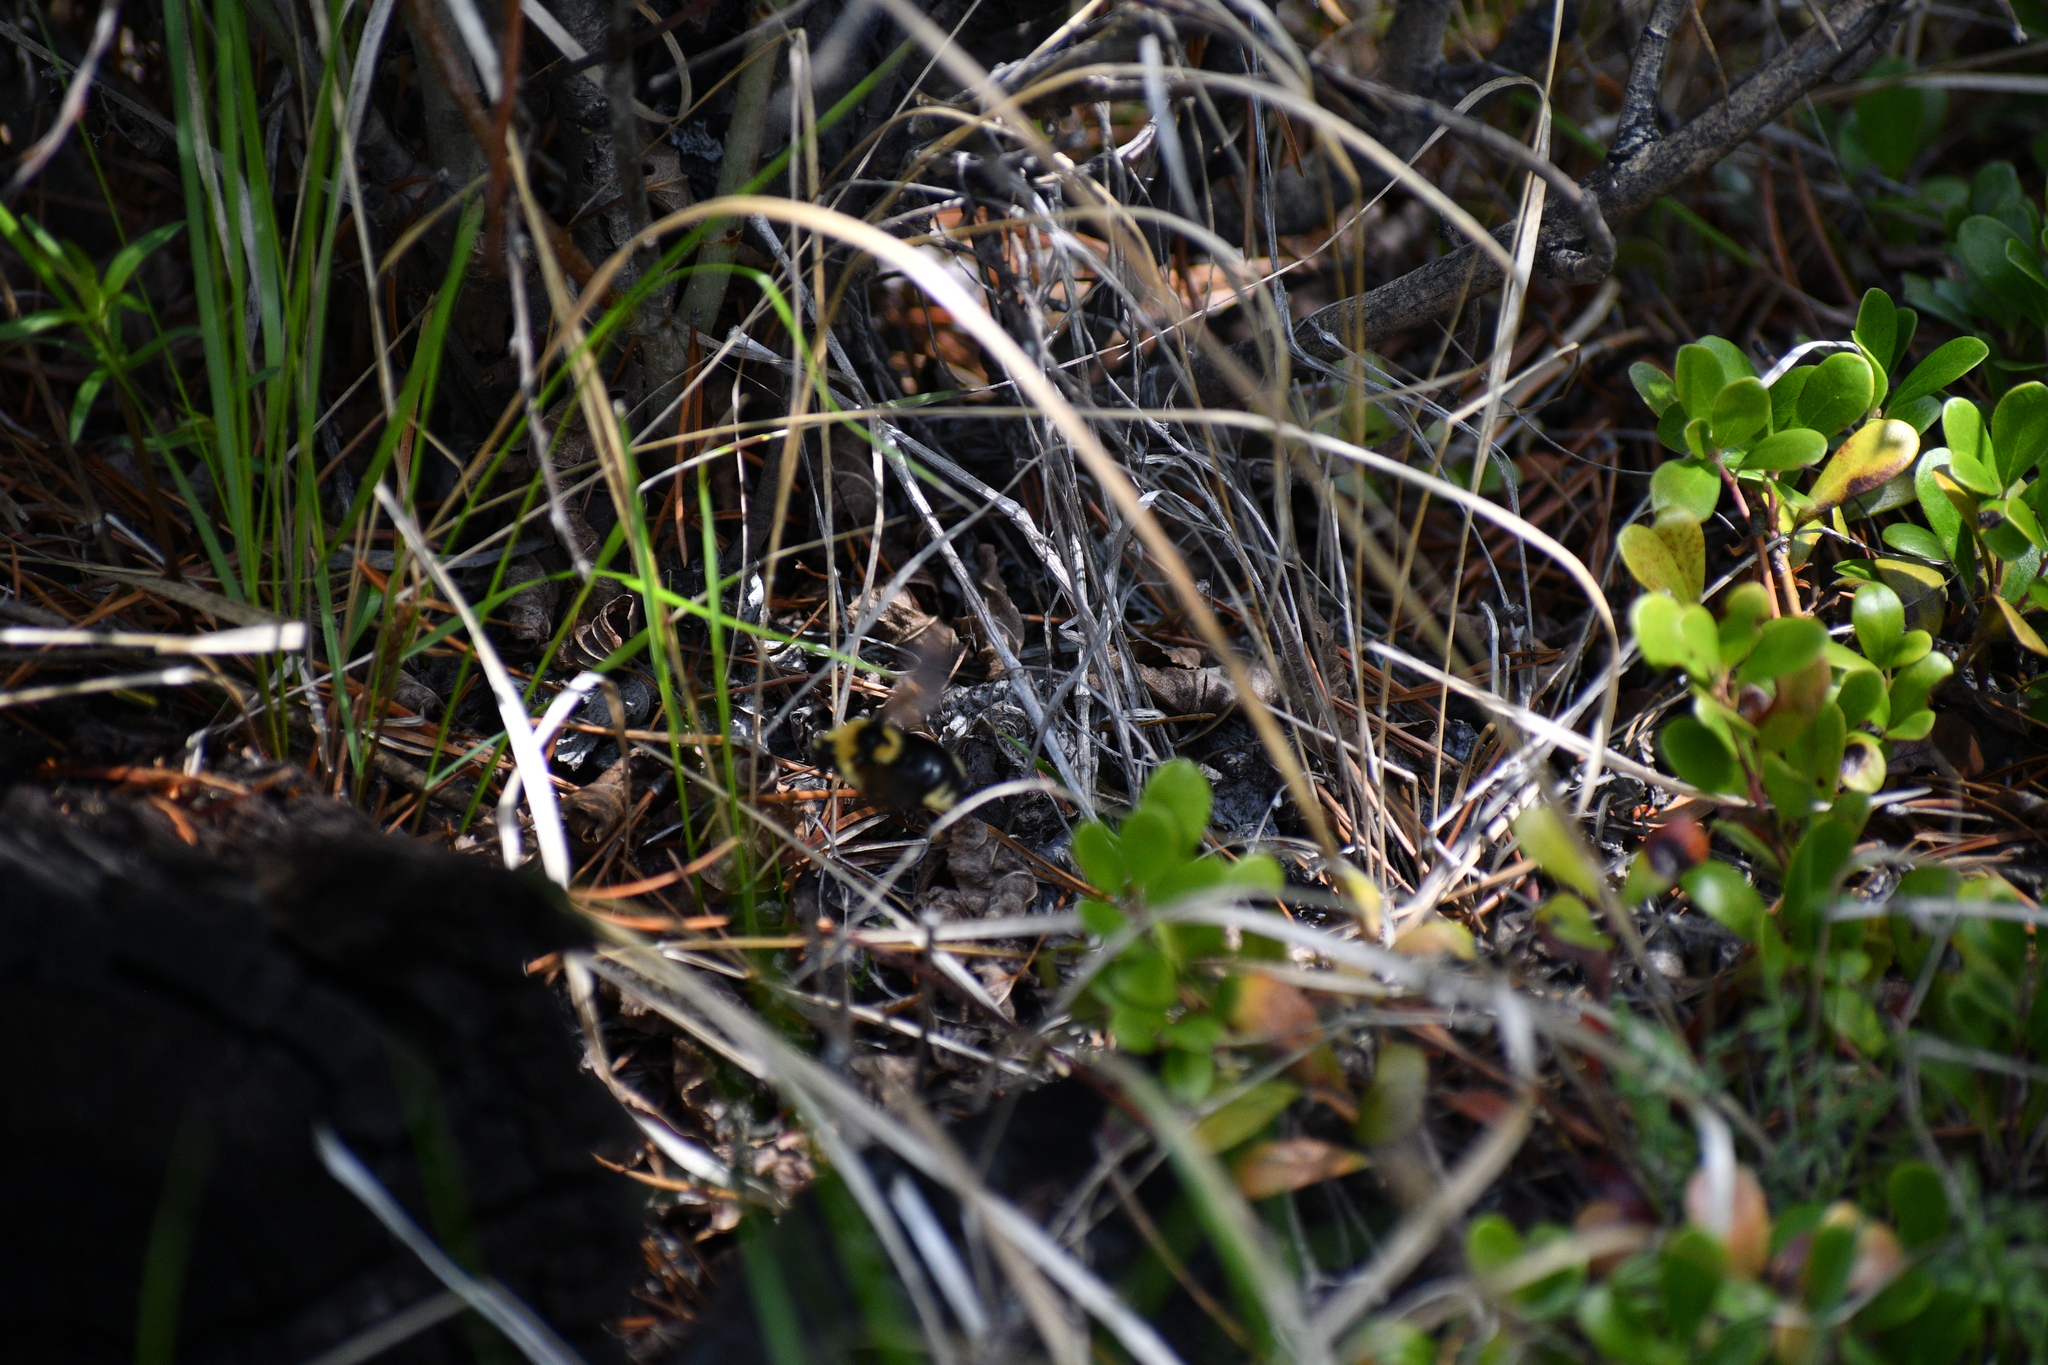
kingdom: Animalia
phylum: Arthropoda
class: Insecta
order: Hymenoptera
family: Apidae
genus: Bombus
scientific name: Bombus insularis
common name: Indiscriminate cuckoo bumble bee
